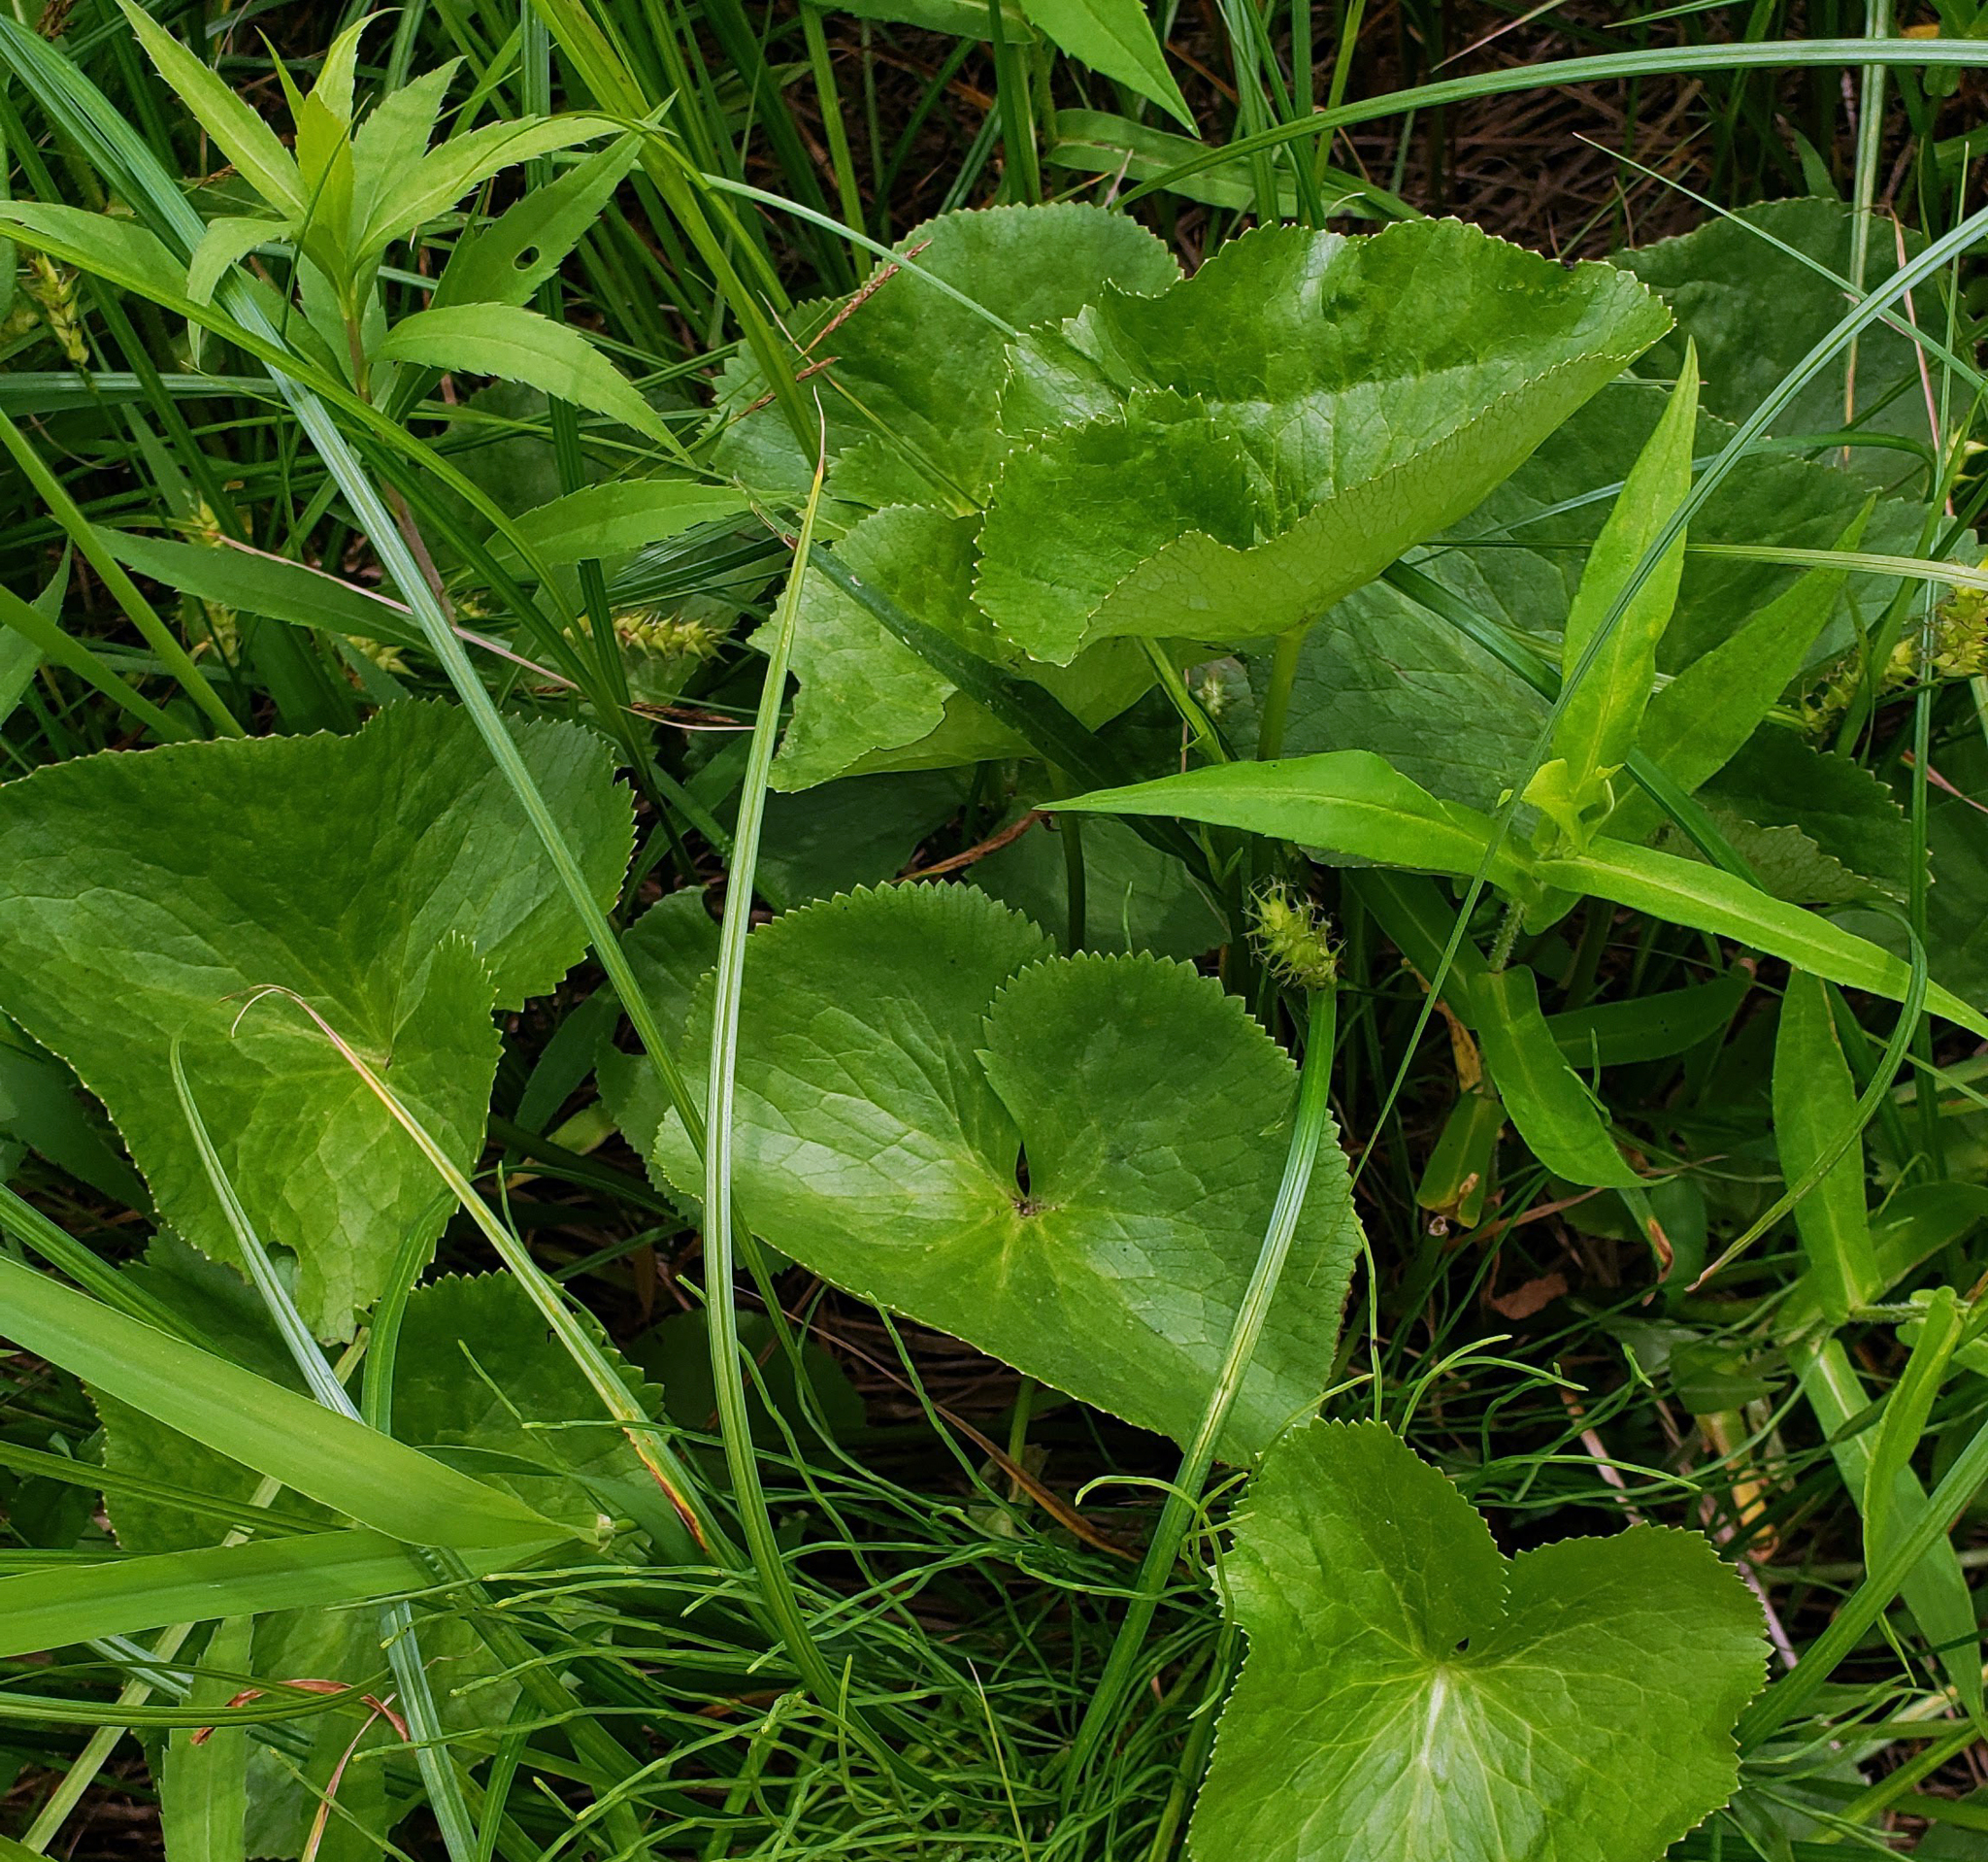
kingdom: Plantae
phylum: Tracheophyta
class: Magnoliopsida
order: Ranunculales
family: Ranunculaceae
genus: Caltha
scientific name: Caltha palustris
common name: Marsh marigold
